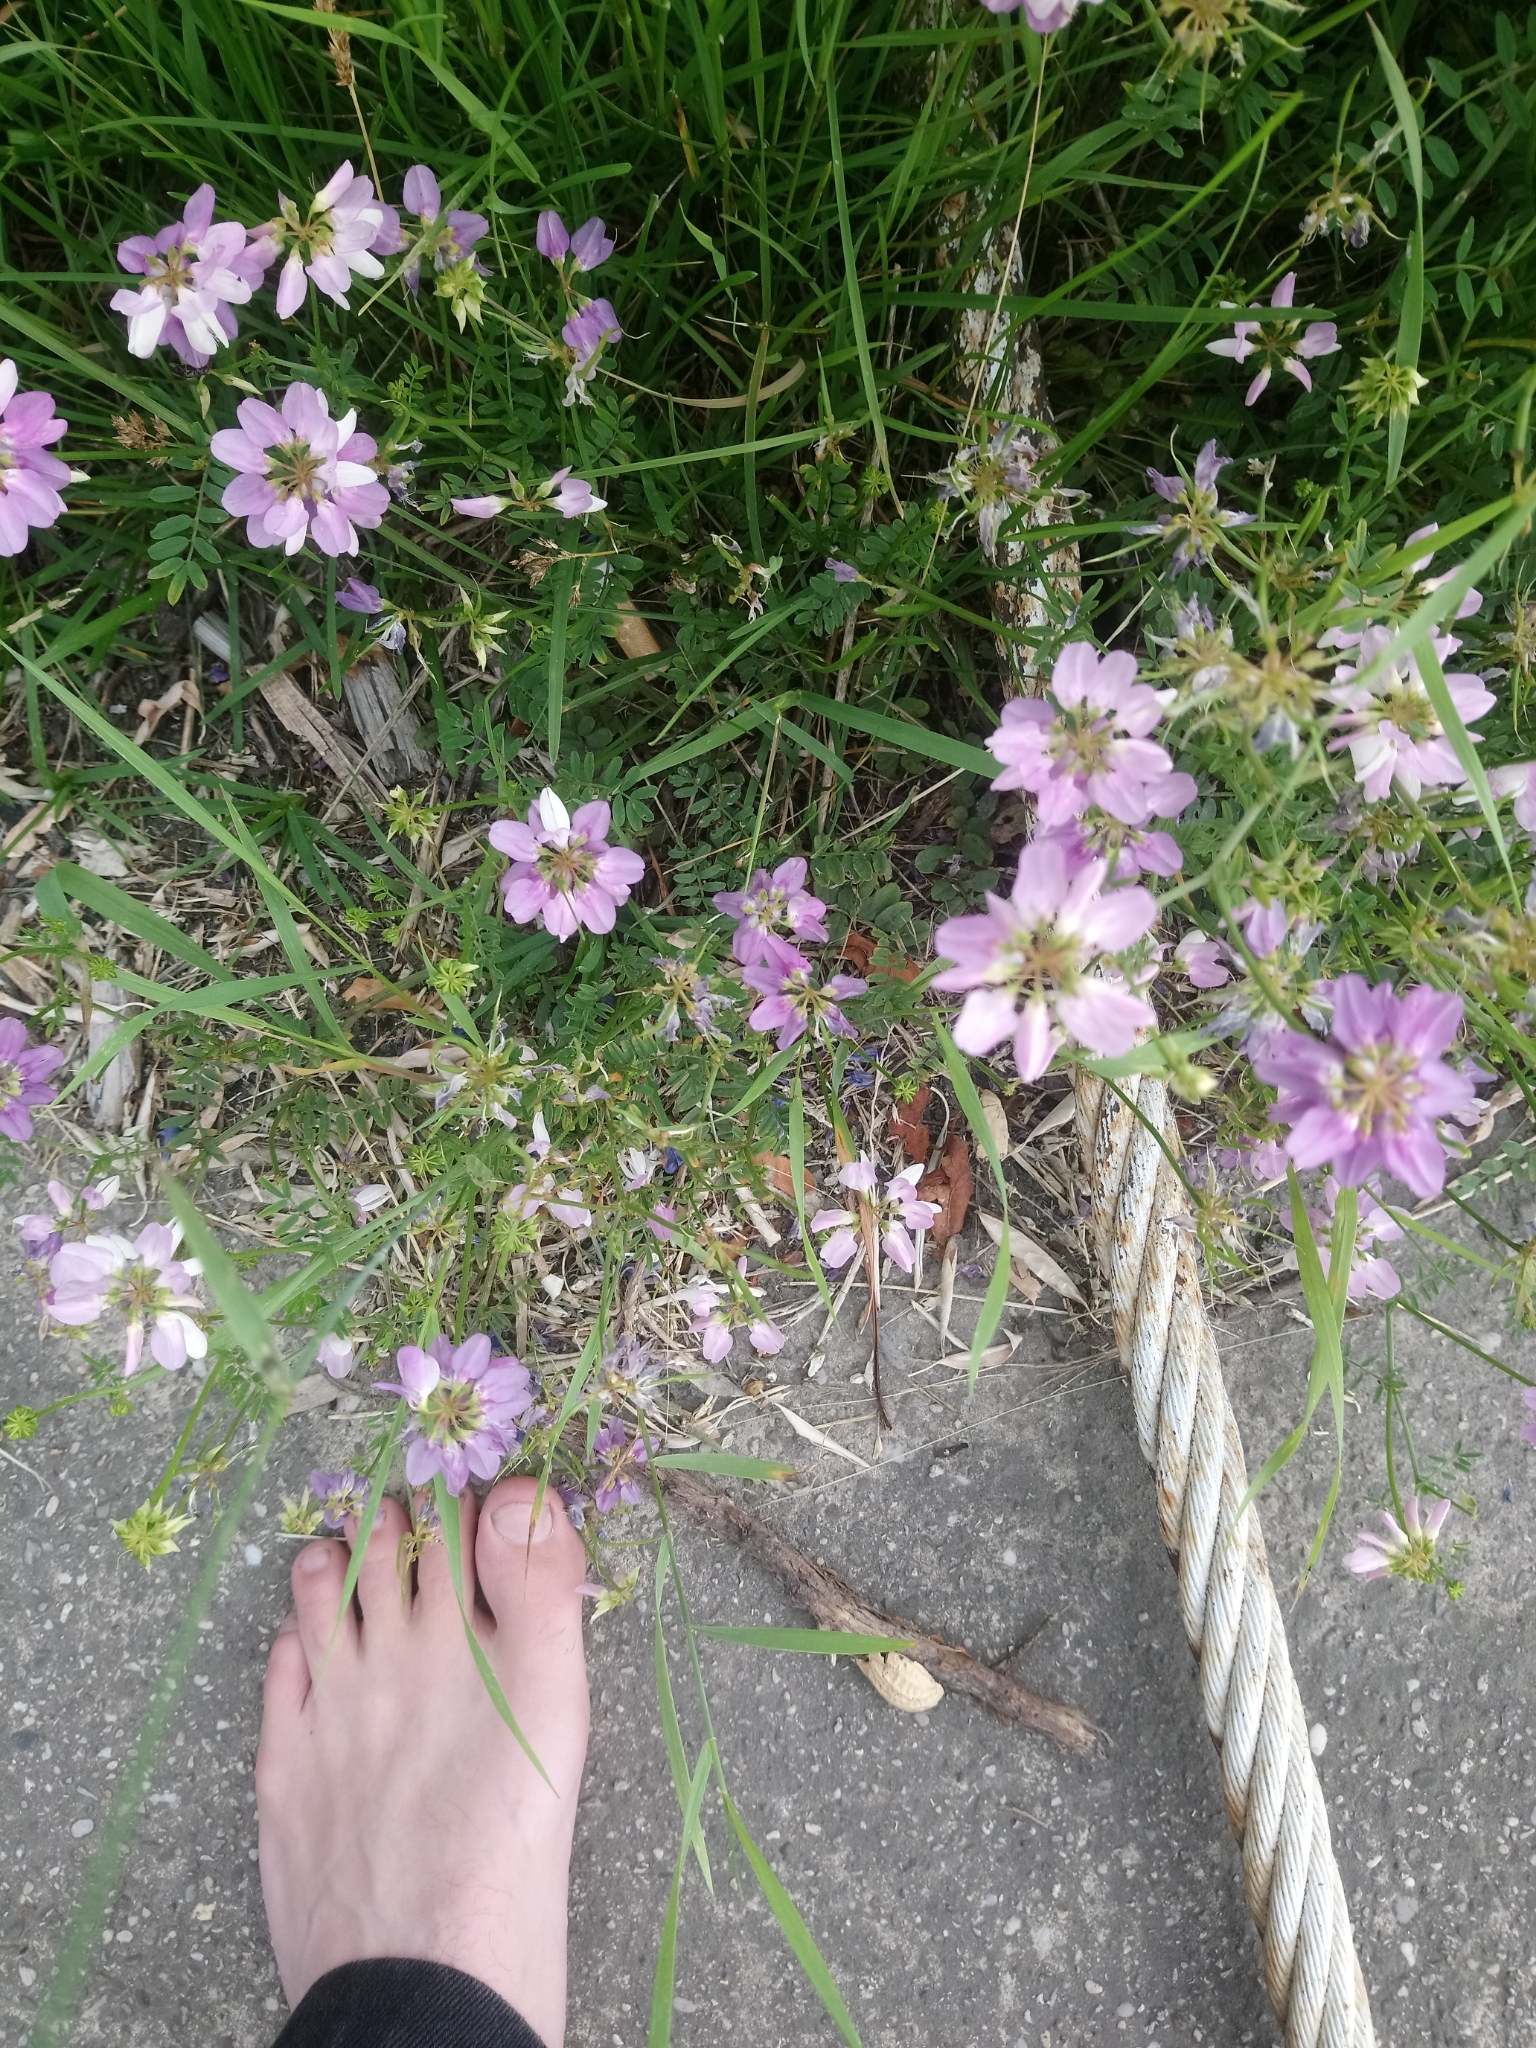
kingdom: Plantae
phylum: Tracheophyta
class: Magnoliopsida
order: Fabales
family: Fabaceae
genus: Coronilla
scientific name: Coronilla varia
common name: Crownvetch
